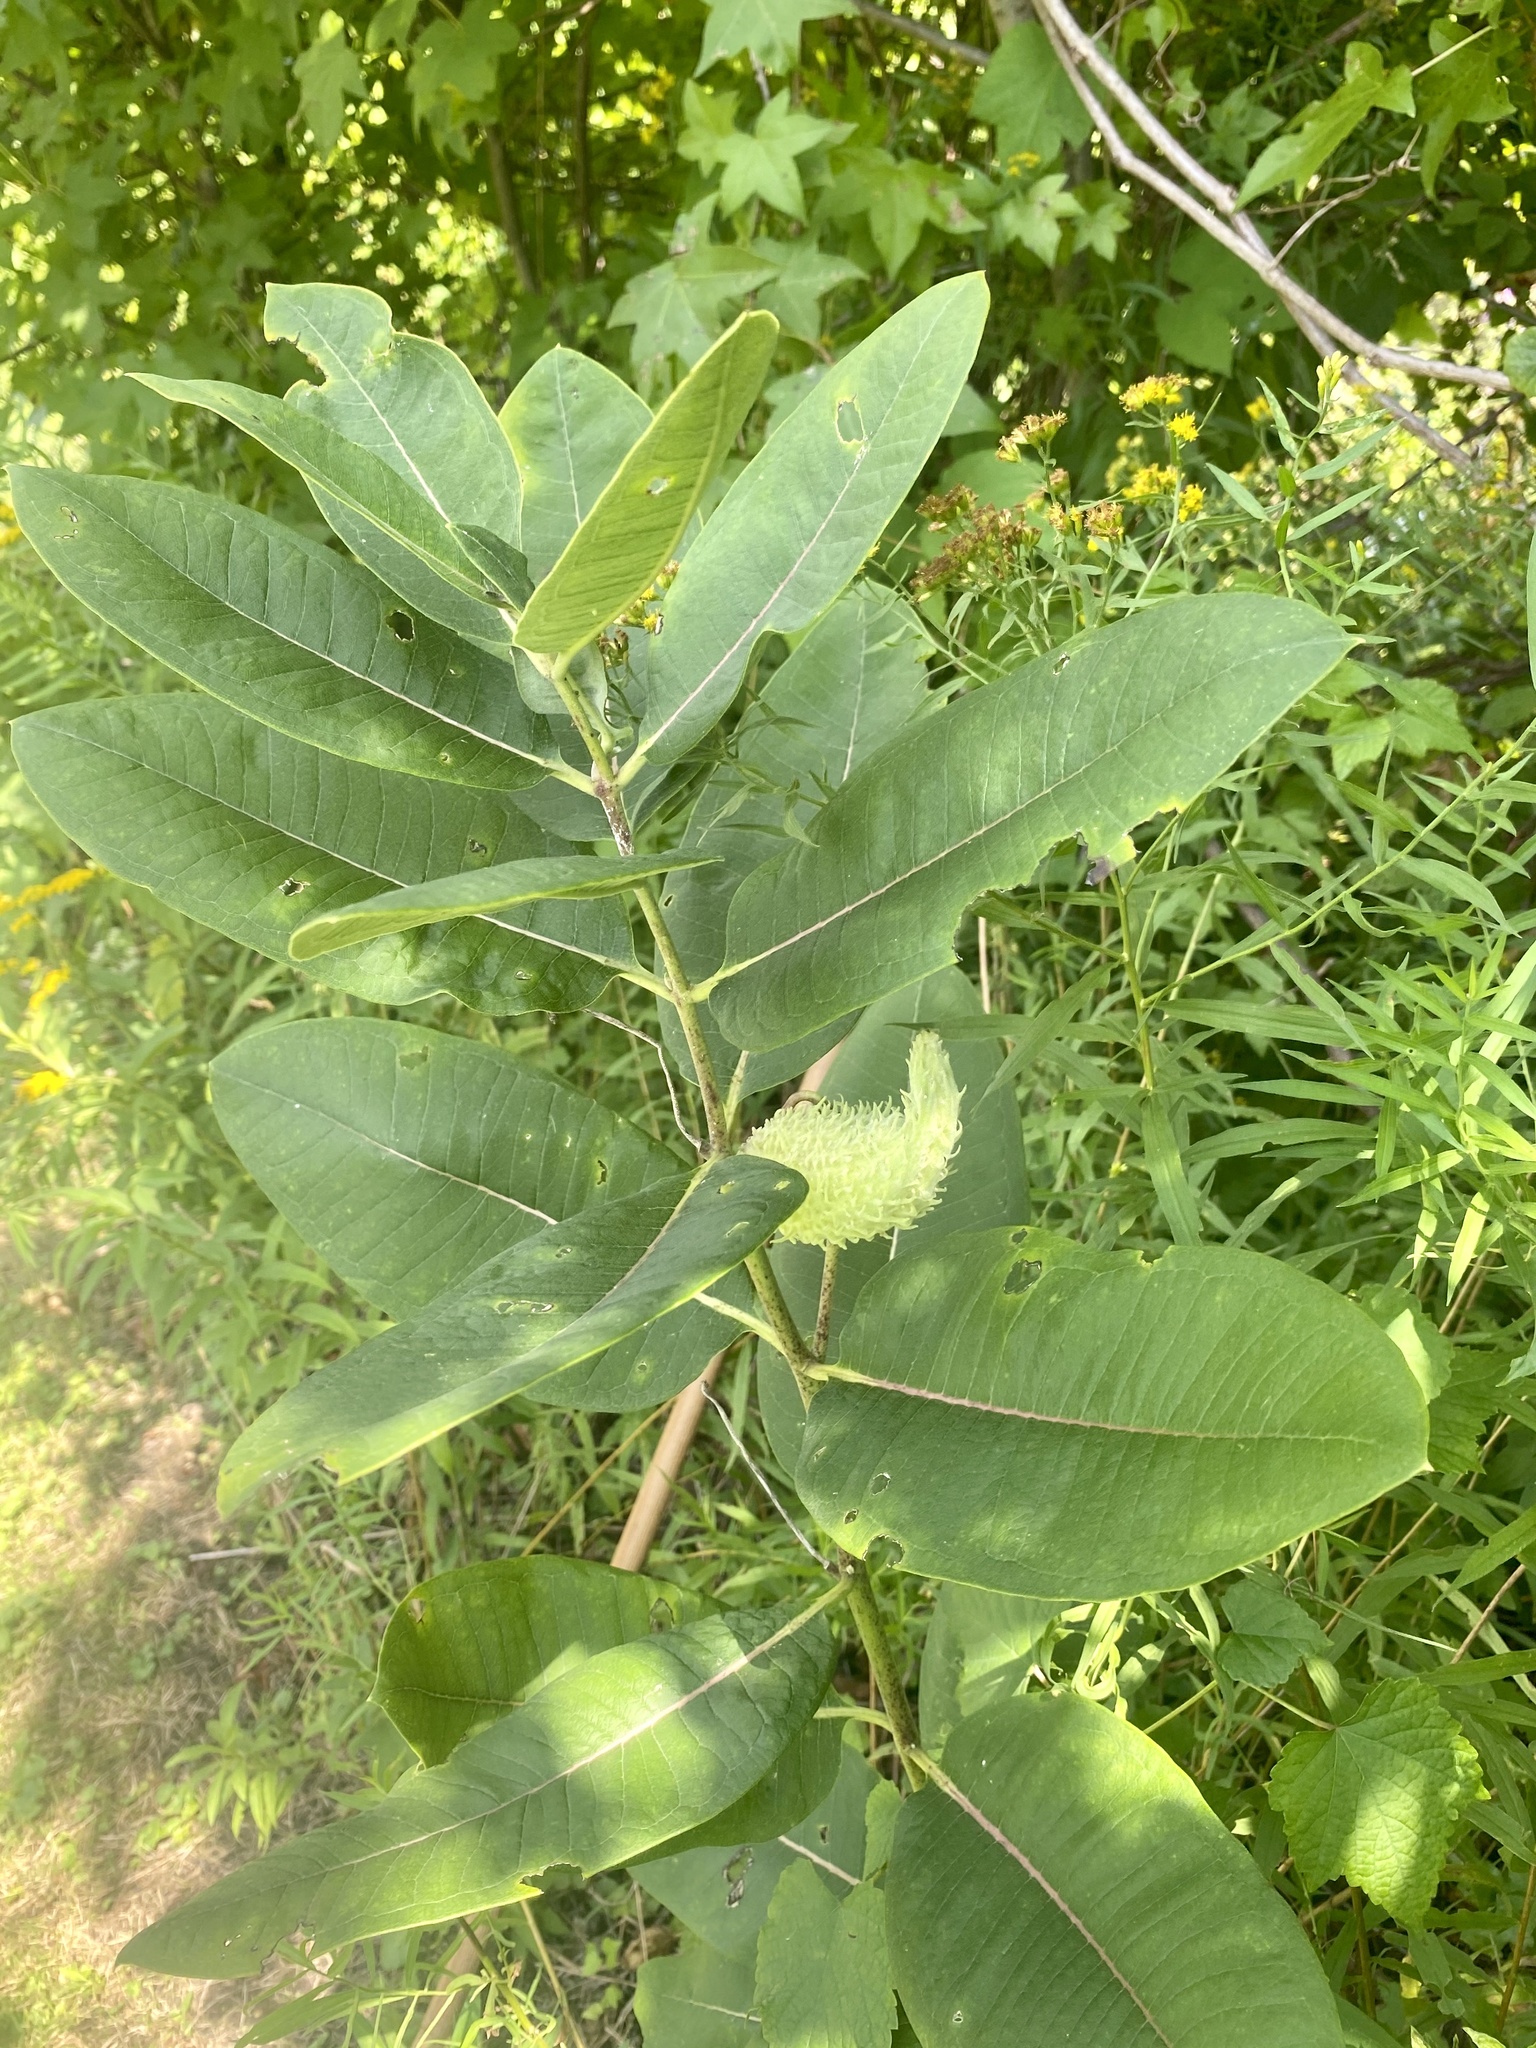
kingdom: Plantae
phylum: Tracheophyta
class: Magnoliopsida
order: Gentianales
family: Apocynaceae
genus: Asclepias
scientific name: Asclepias syriaca
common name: Common milkweed
